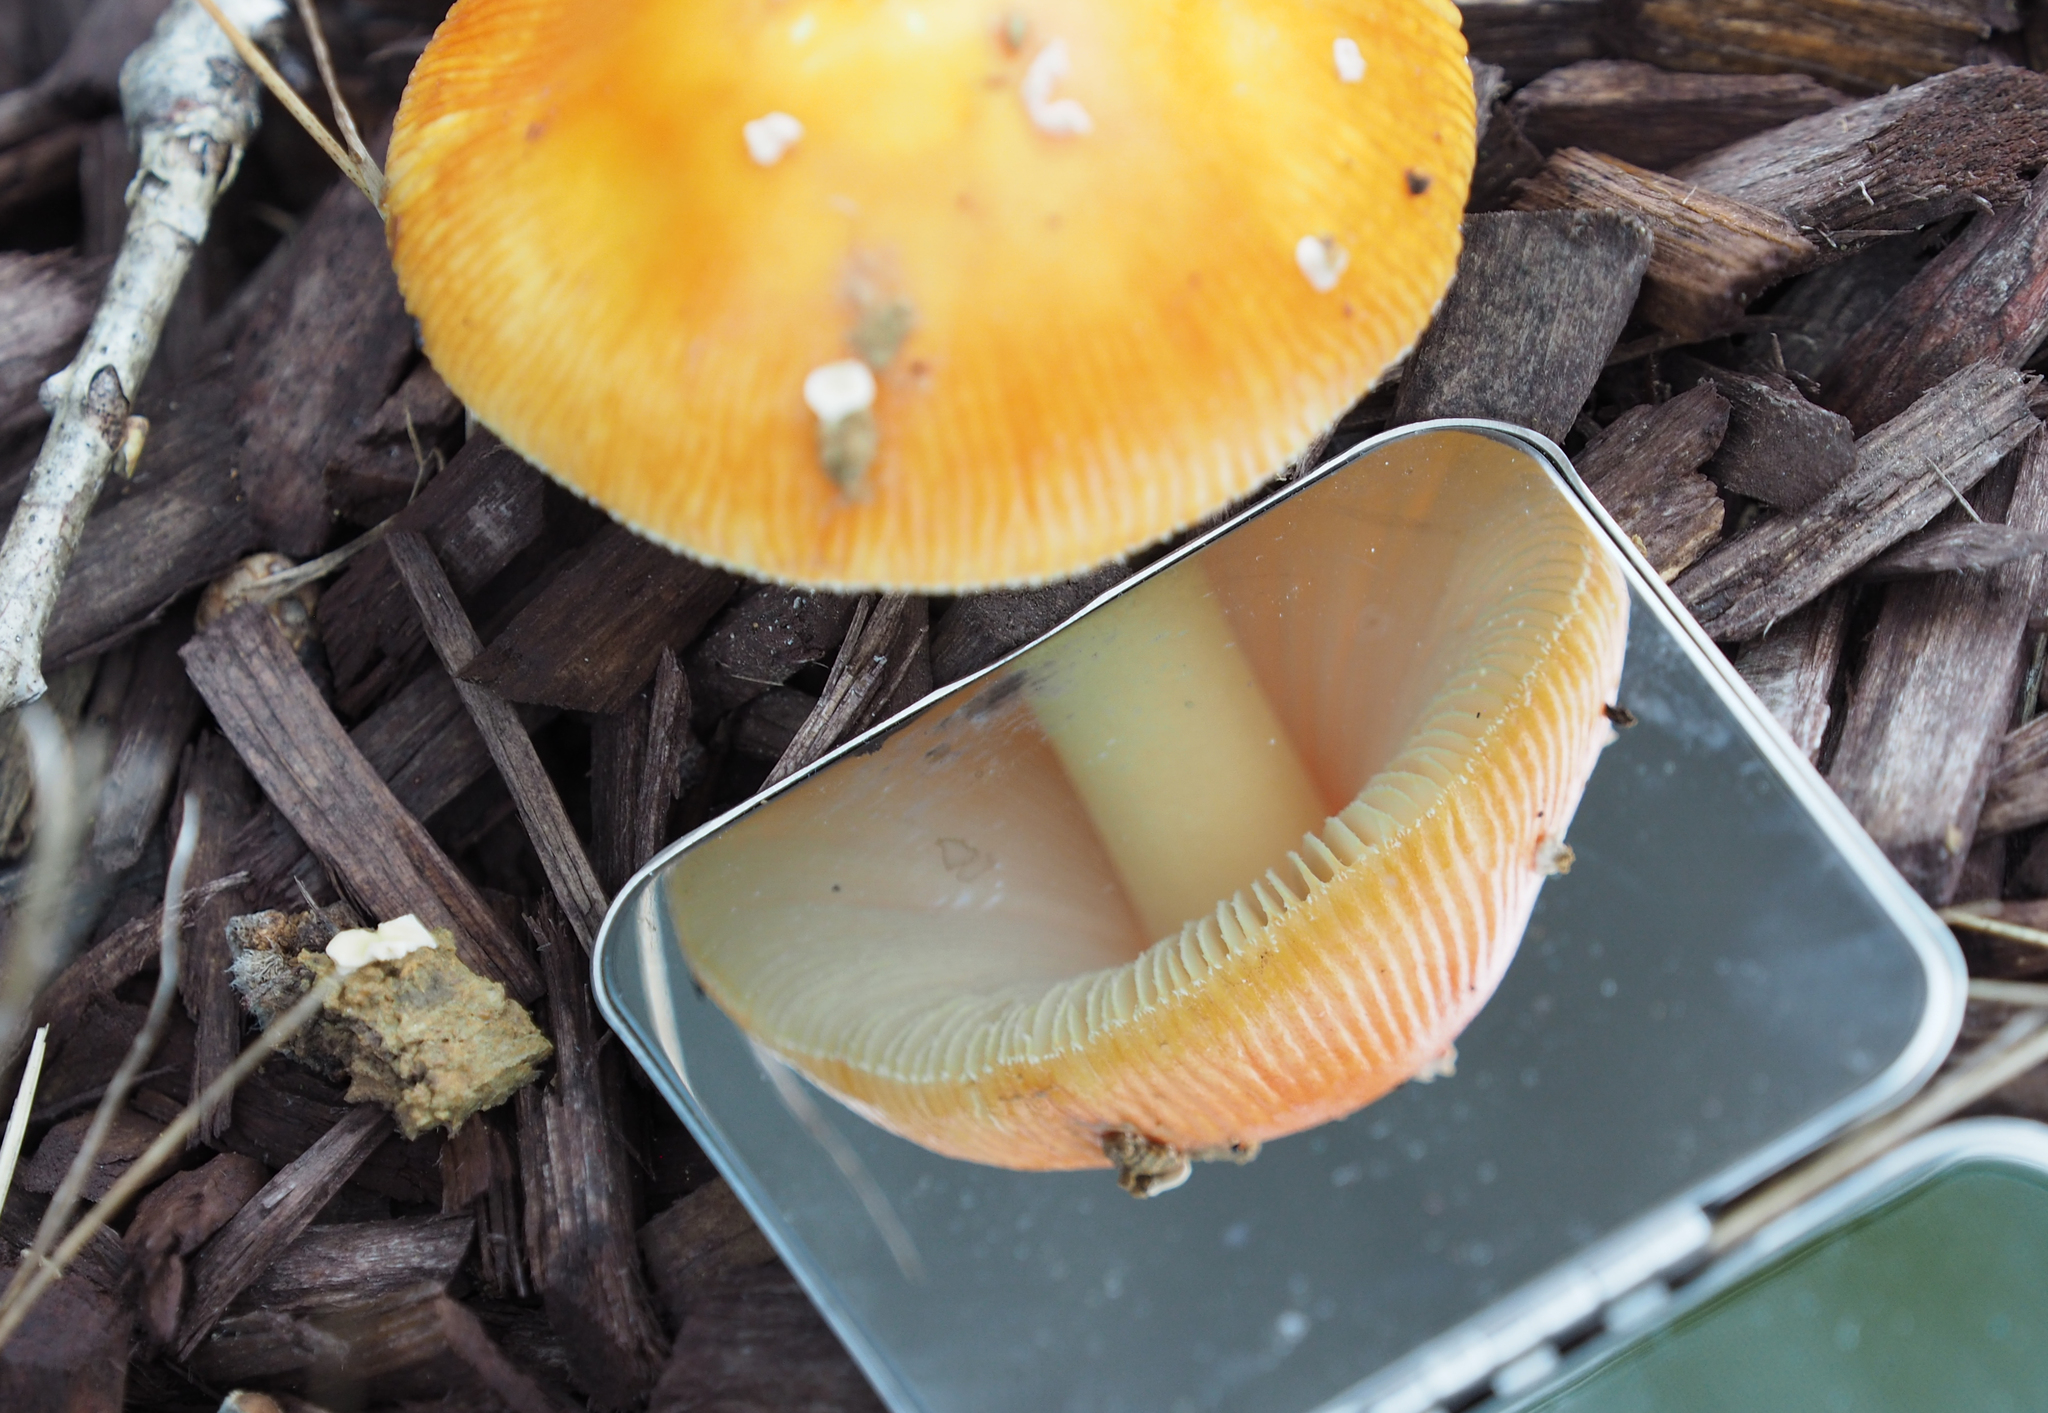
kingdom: Fungi
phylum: Basidiomycota
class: Agaricomycetes
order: Agaricales
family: Amanitaceae
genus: Amanita
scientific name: Amanita parcivolvata
